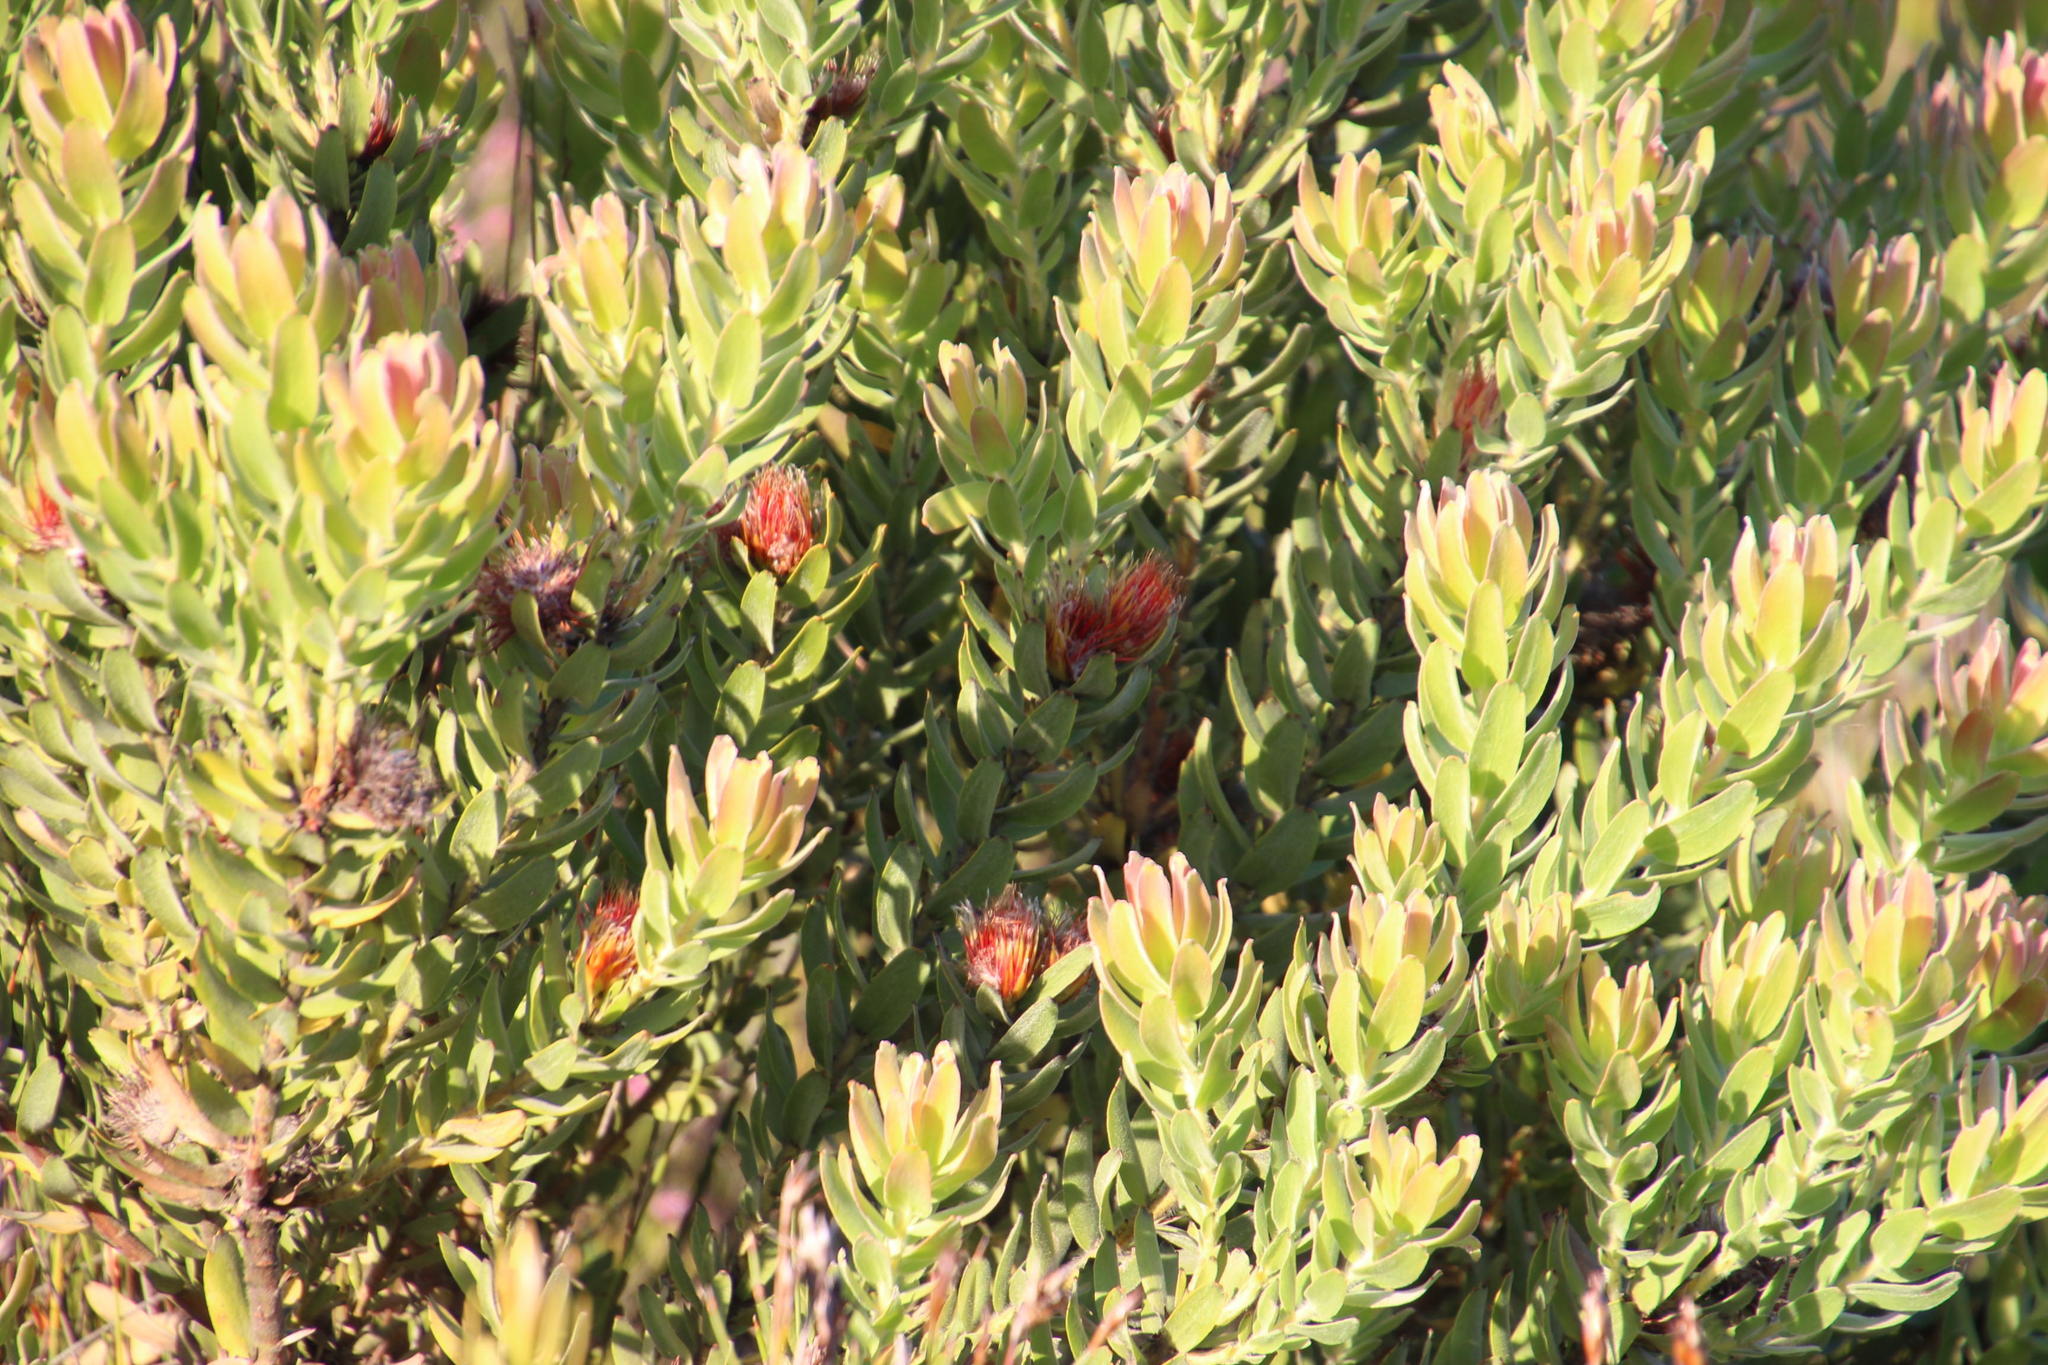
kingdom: Plantae
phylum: Tracheophyta
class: Magnoliopsida
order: Proteales
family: Proteaceae
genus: Leucospermum
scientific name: Leucospermum oleifolium
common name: Matches
